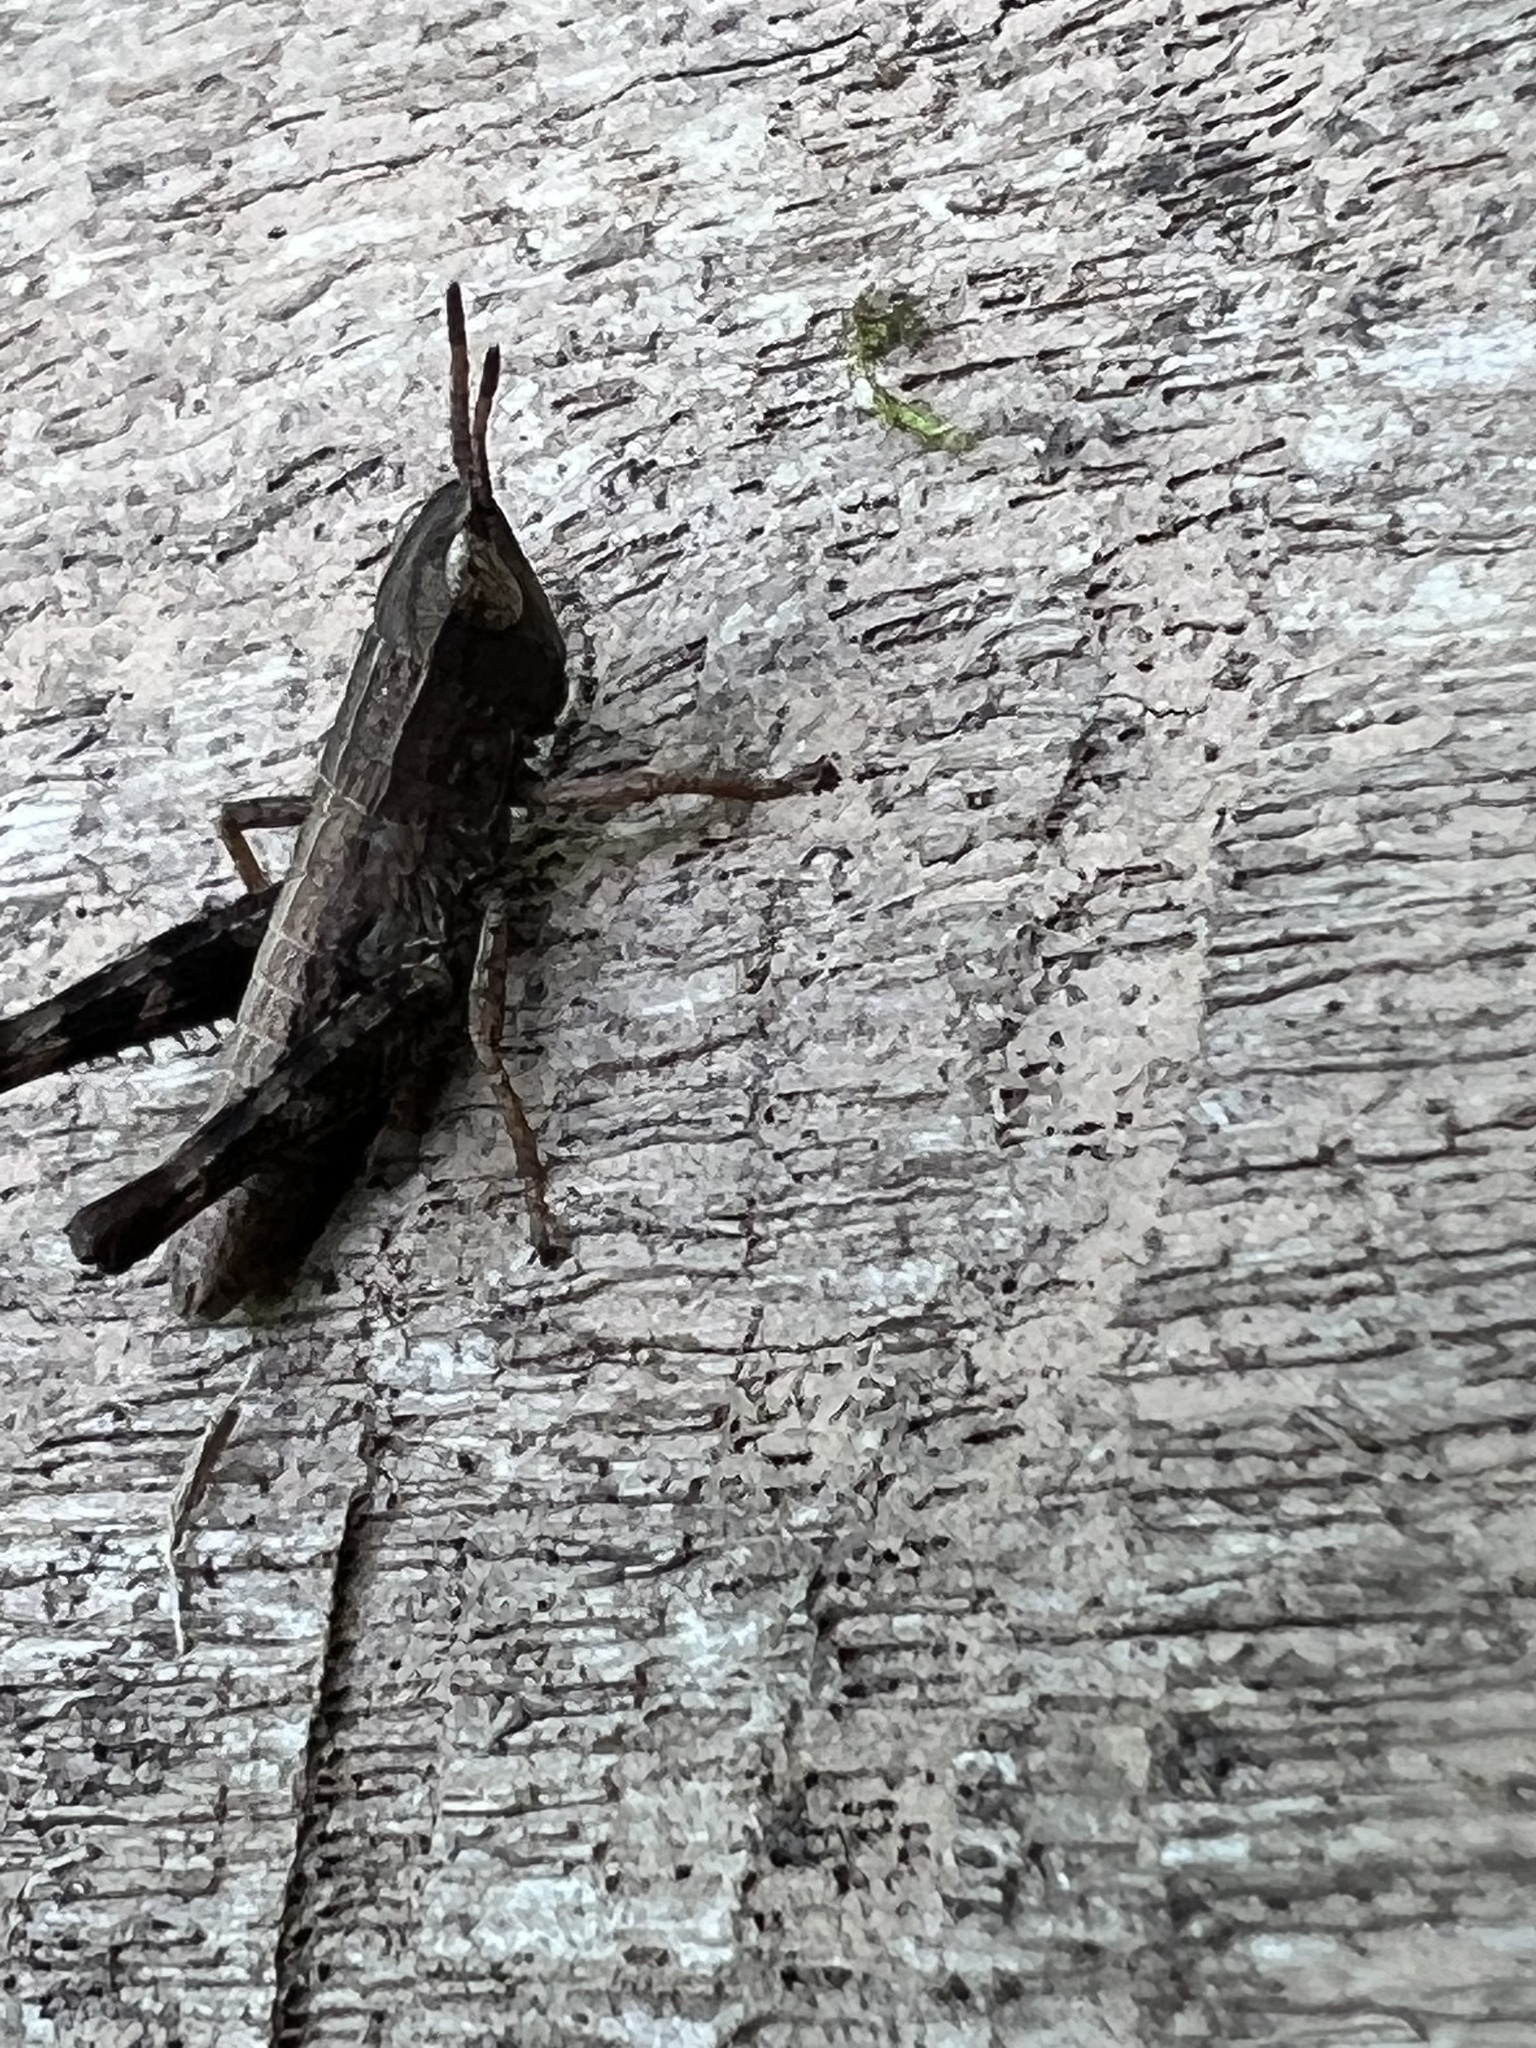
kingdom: Animalia
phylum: Arthropoda
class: Insecta
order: Orthoptera
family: Acrididae
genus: Dichromorpha
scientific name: Dichromorpha viridis
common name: Short-winged green grasshopper
